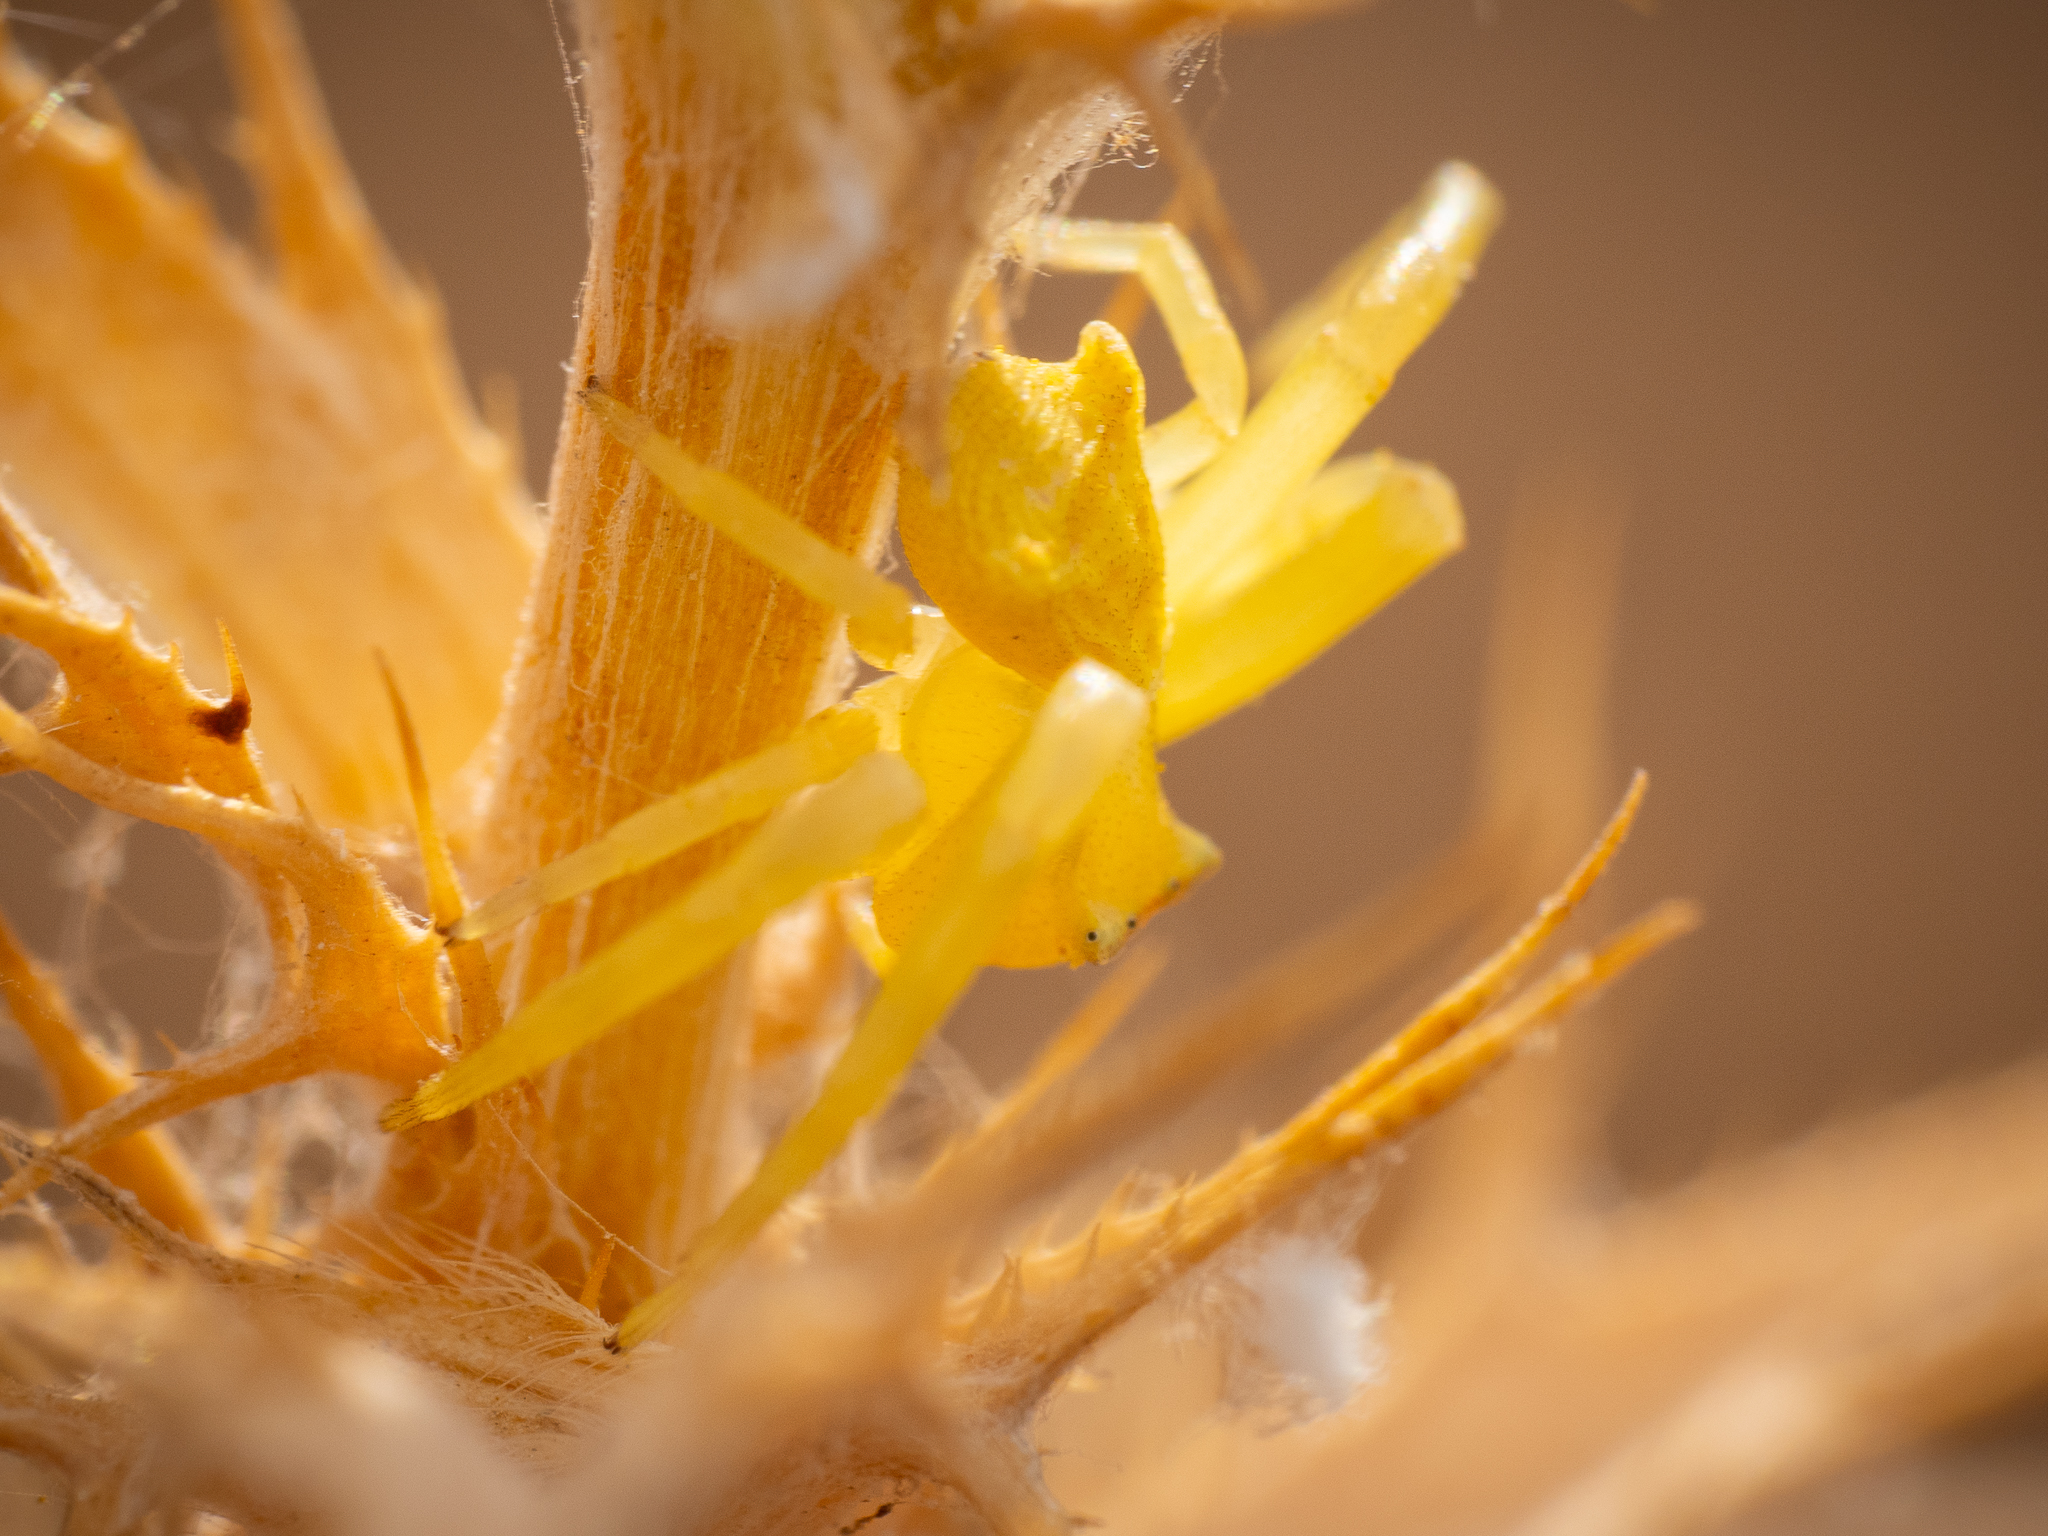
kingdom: Animalia
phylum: Arthropoda
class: Arachnida
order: Araneae
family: Thomisidae
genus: Thomisus
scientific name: Thomisus onustus
